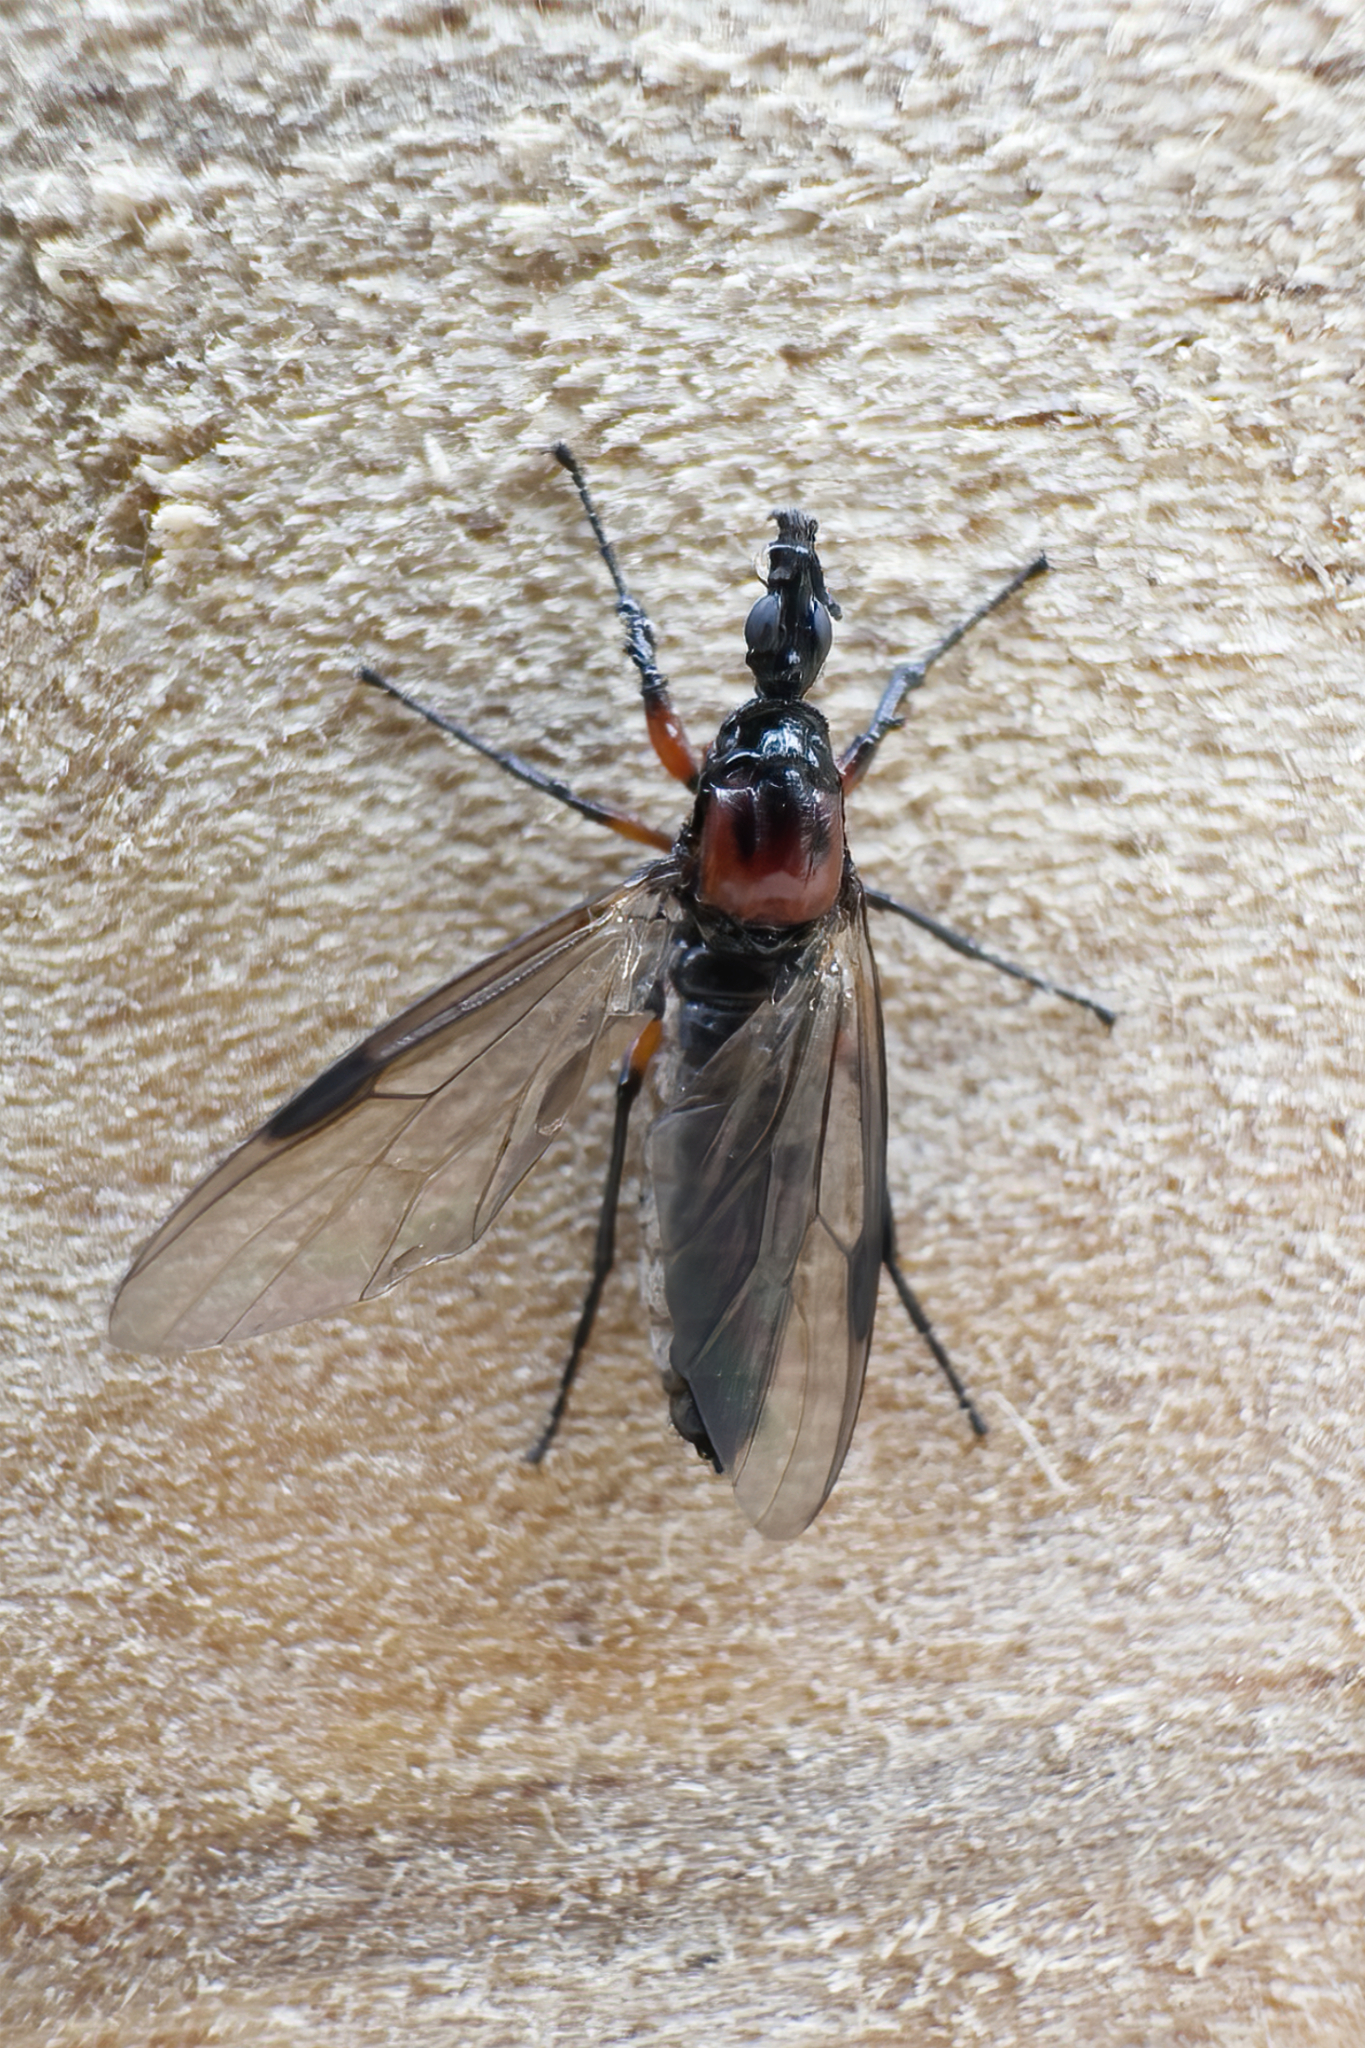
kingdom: Animalia
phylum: Arthropoda
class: Insecta
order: Diptera
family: Bibionidae
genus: Dilophus
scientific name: Dilophus nigrostigma
